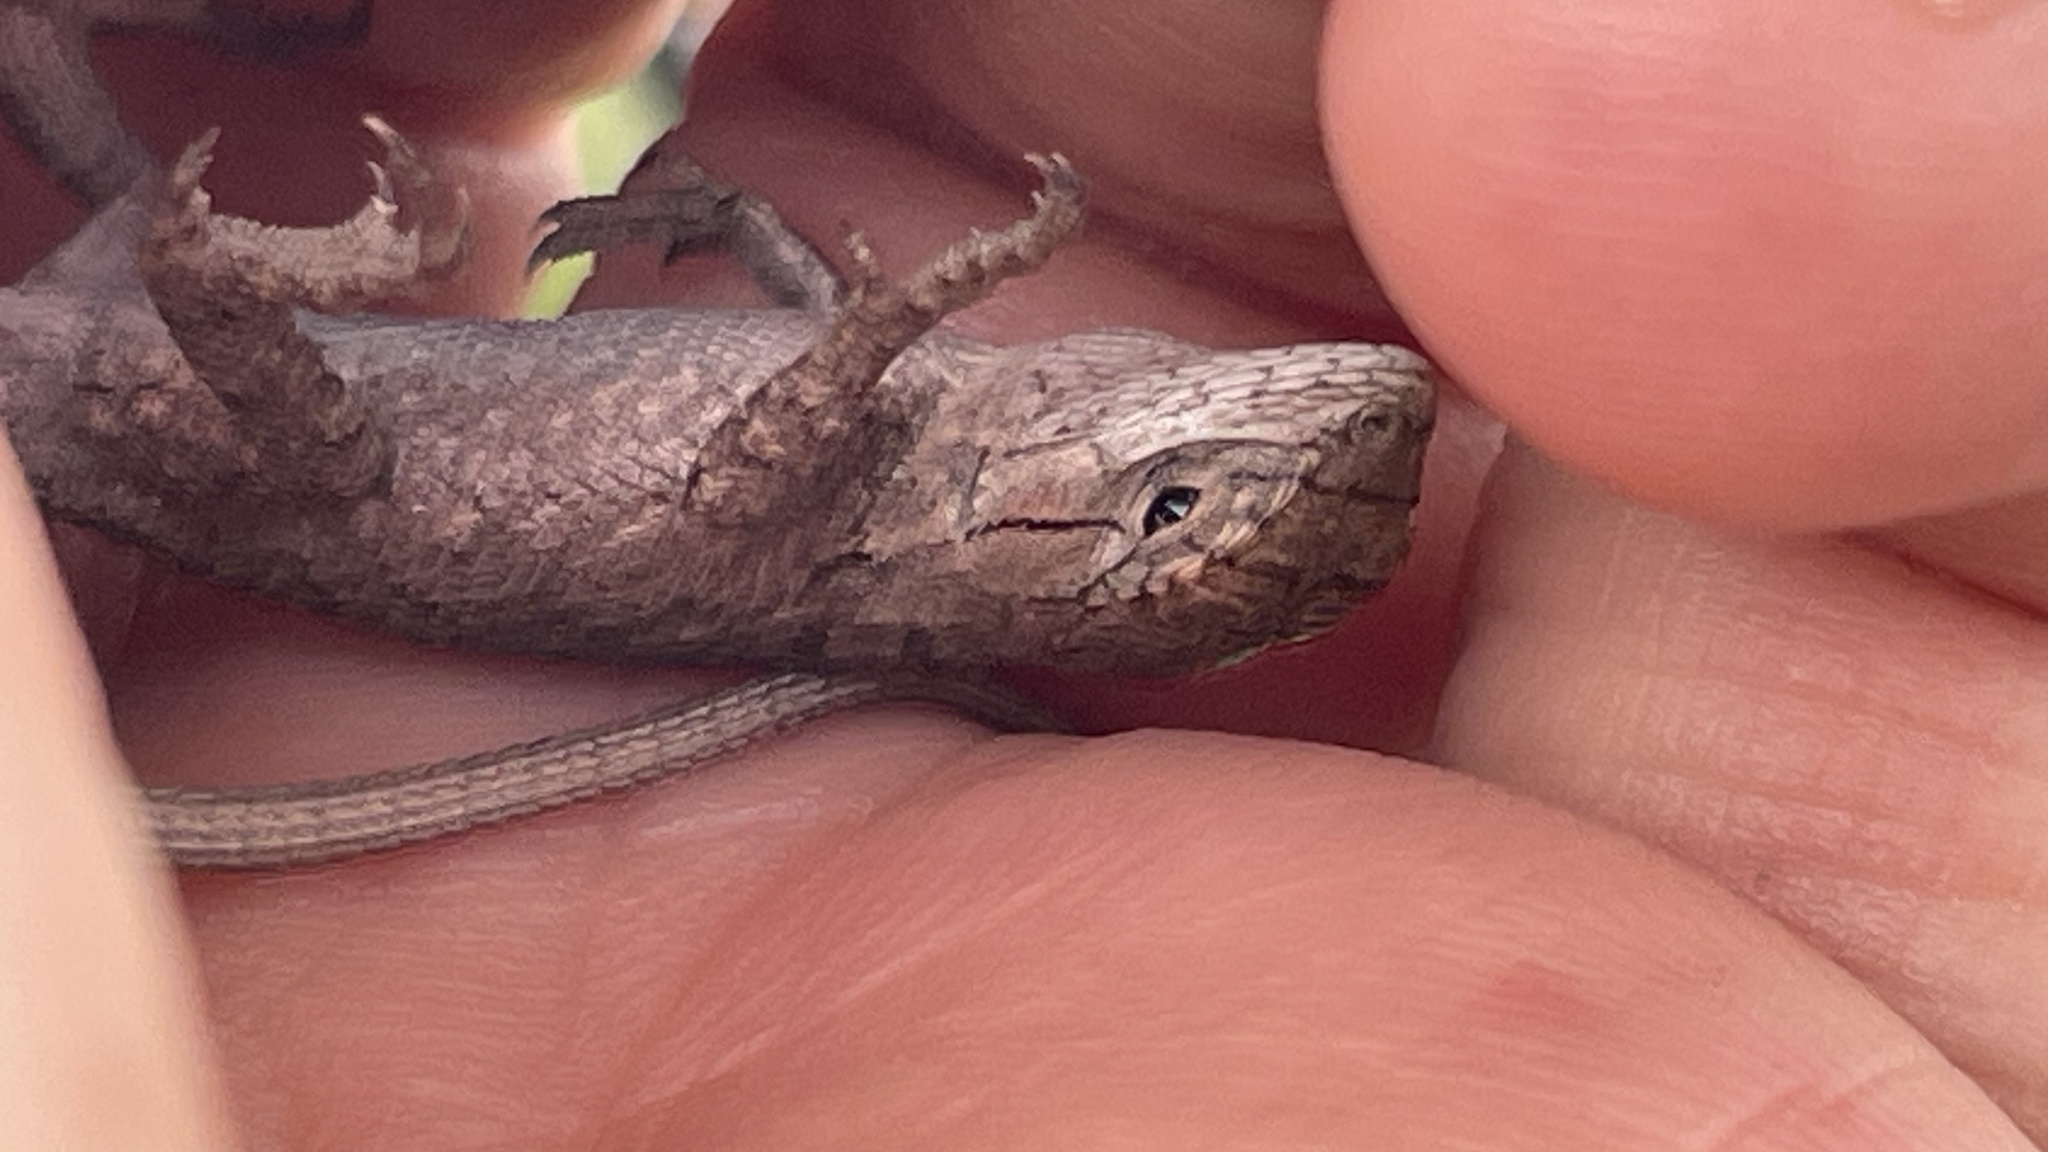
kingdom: Animalia
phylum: Chordata
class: Squamata
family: Phrynosomatidae
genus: Sceloporus
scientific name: Sceloporus cautus
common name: Shy spiny lizard
